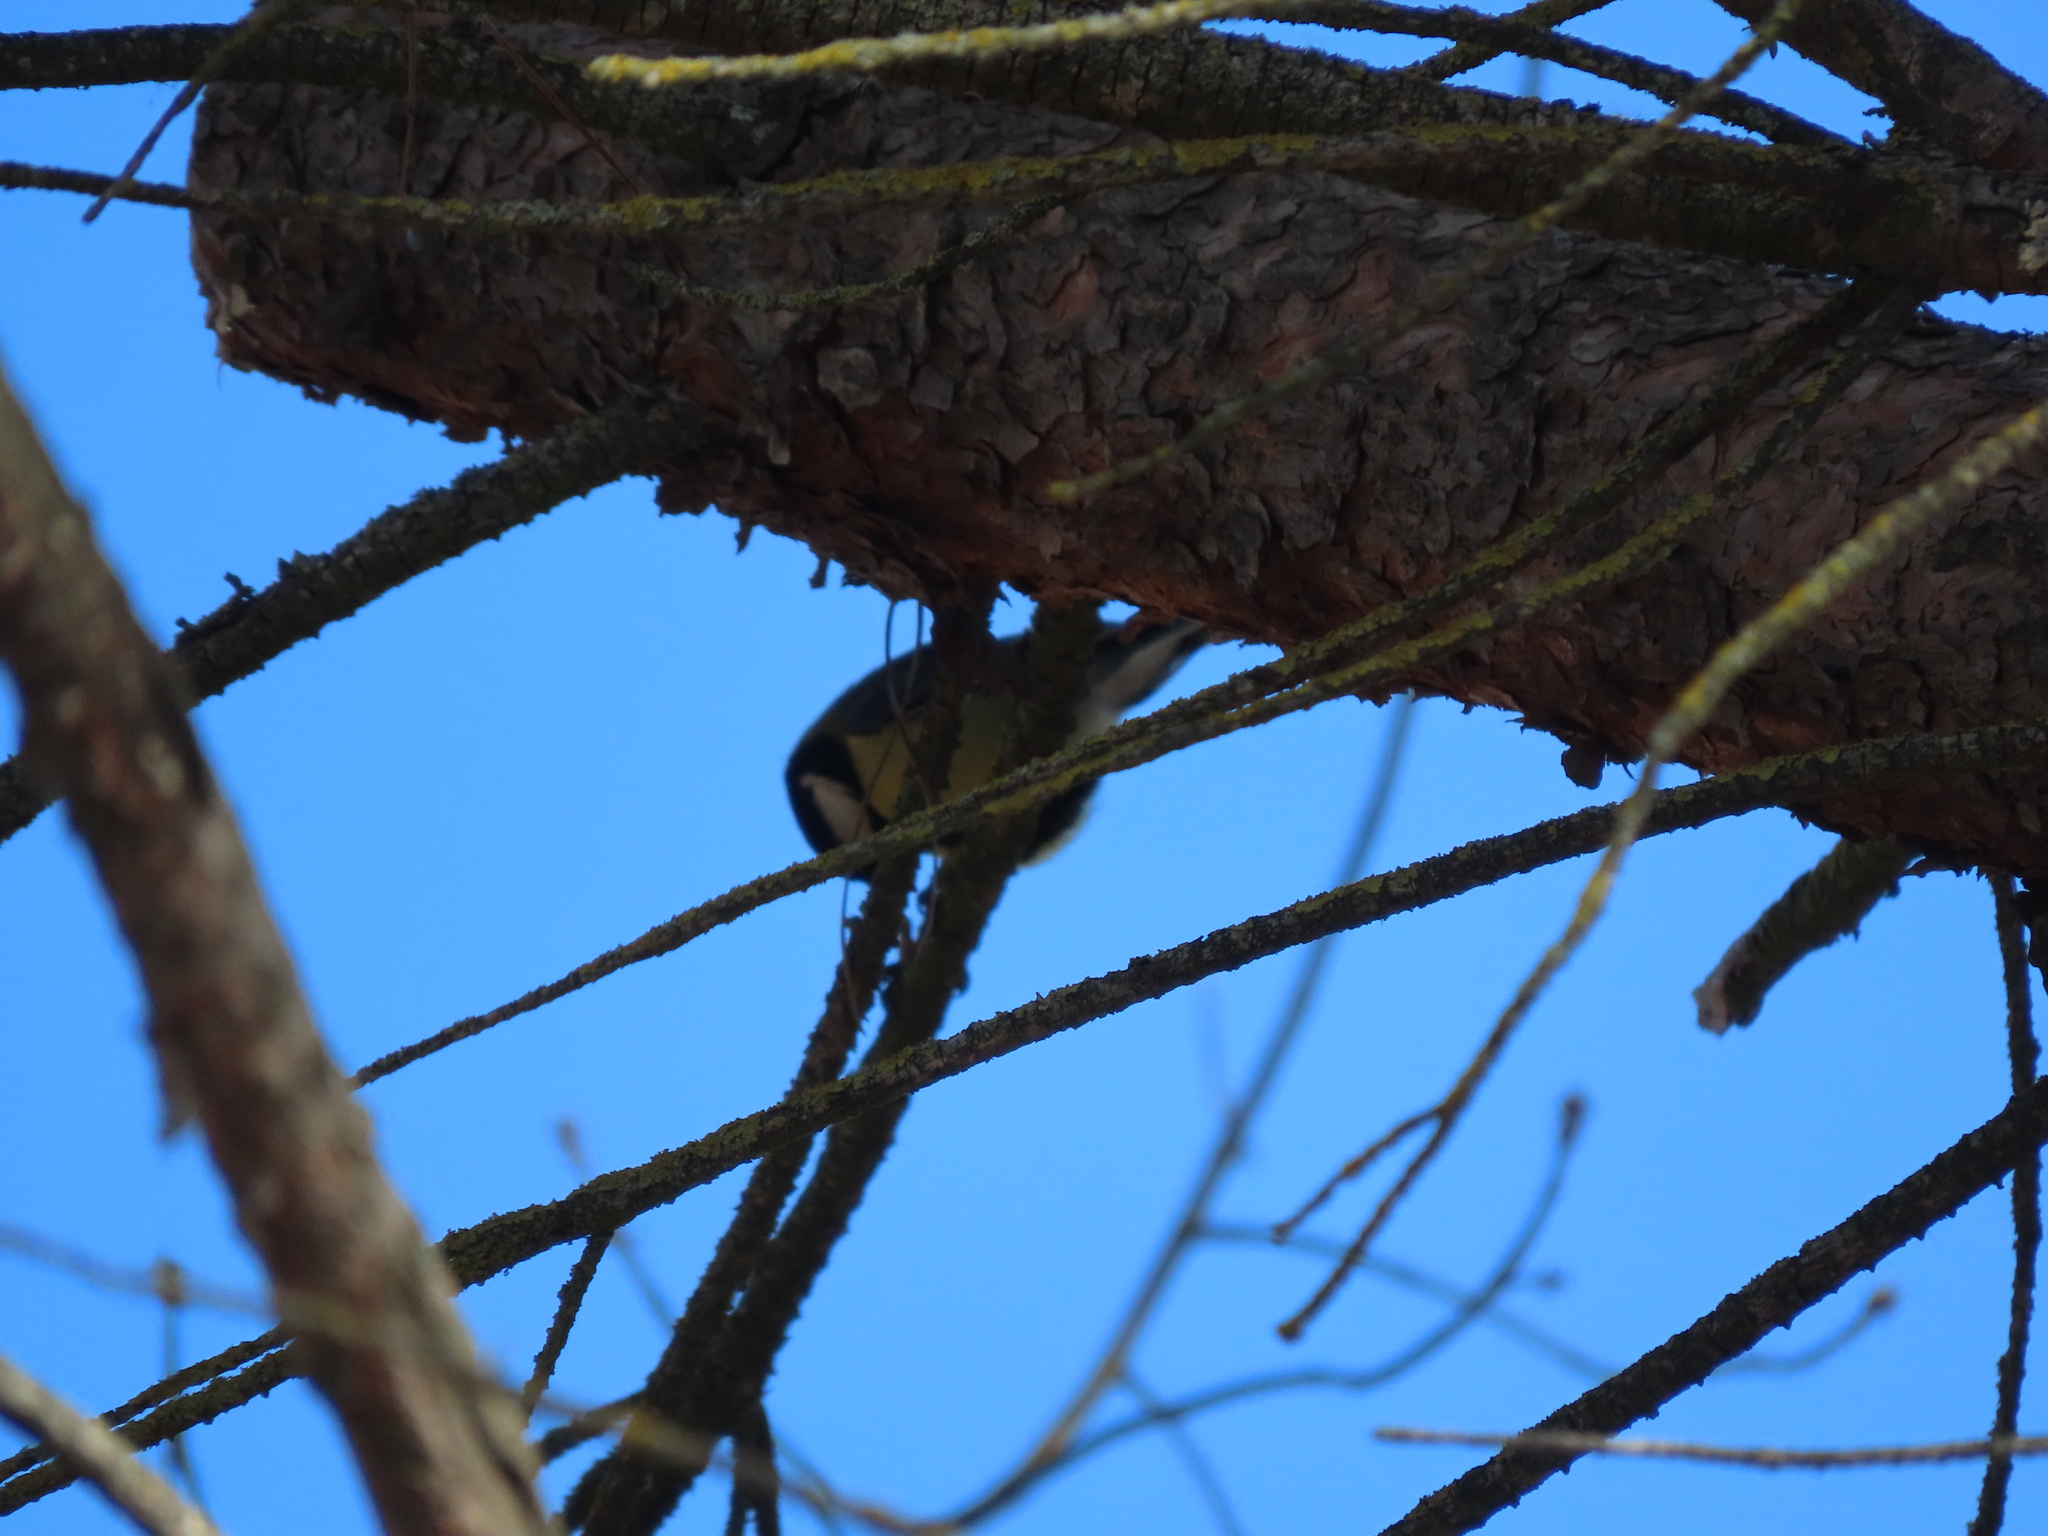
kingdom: Animalia
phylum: Chordata
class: Aves
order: Passeriformes
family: Paridae
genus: Parus
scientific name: Parus major
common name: Great tit
